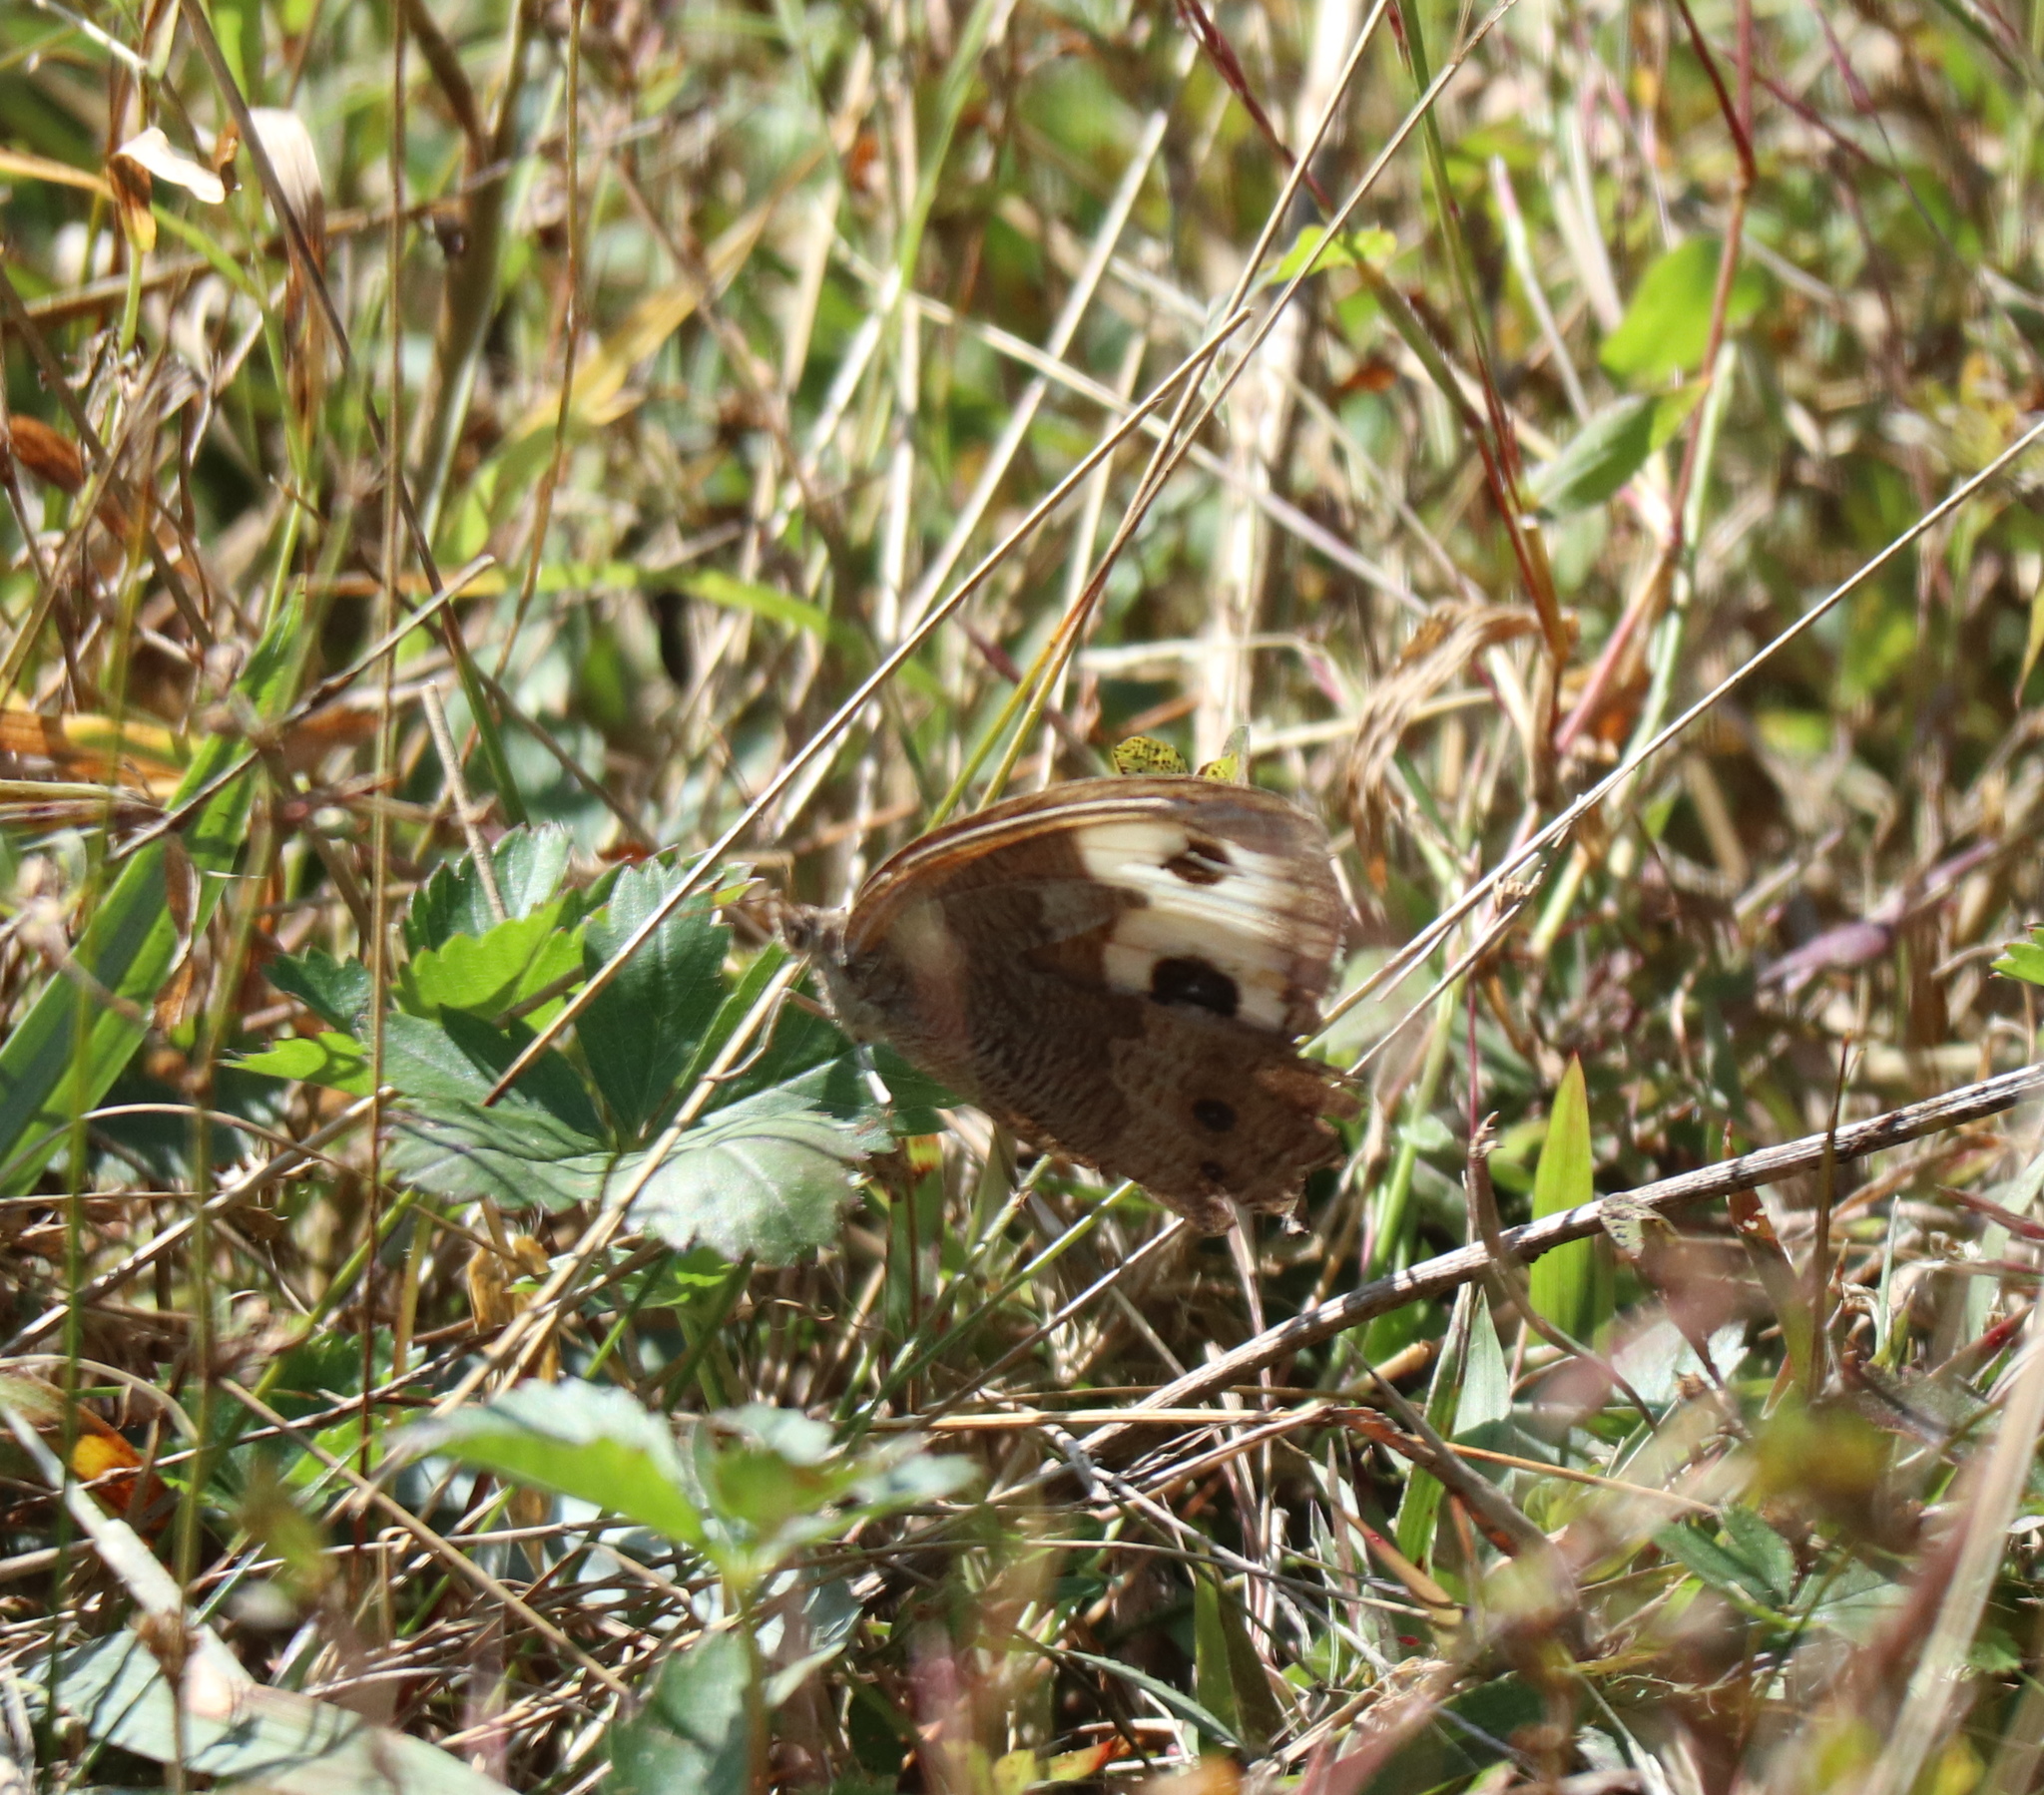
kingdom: Animalia
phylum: Arthropoda
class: Insecta
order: Lepidoptera
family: Nymphalidae
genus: Cercyonis
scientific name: Cercyonis pegala
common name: Common wood-nymph
